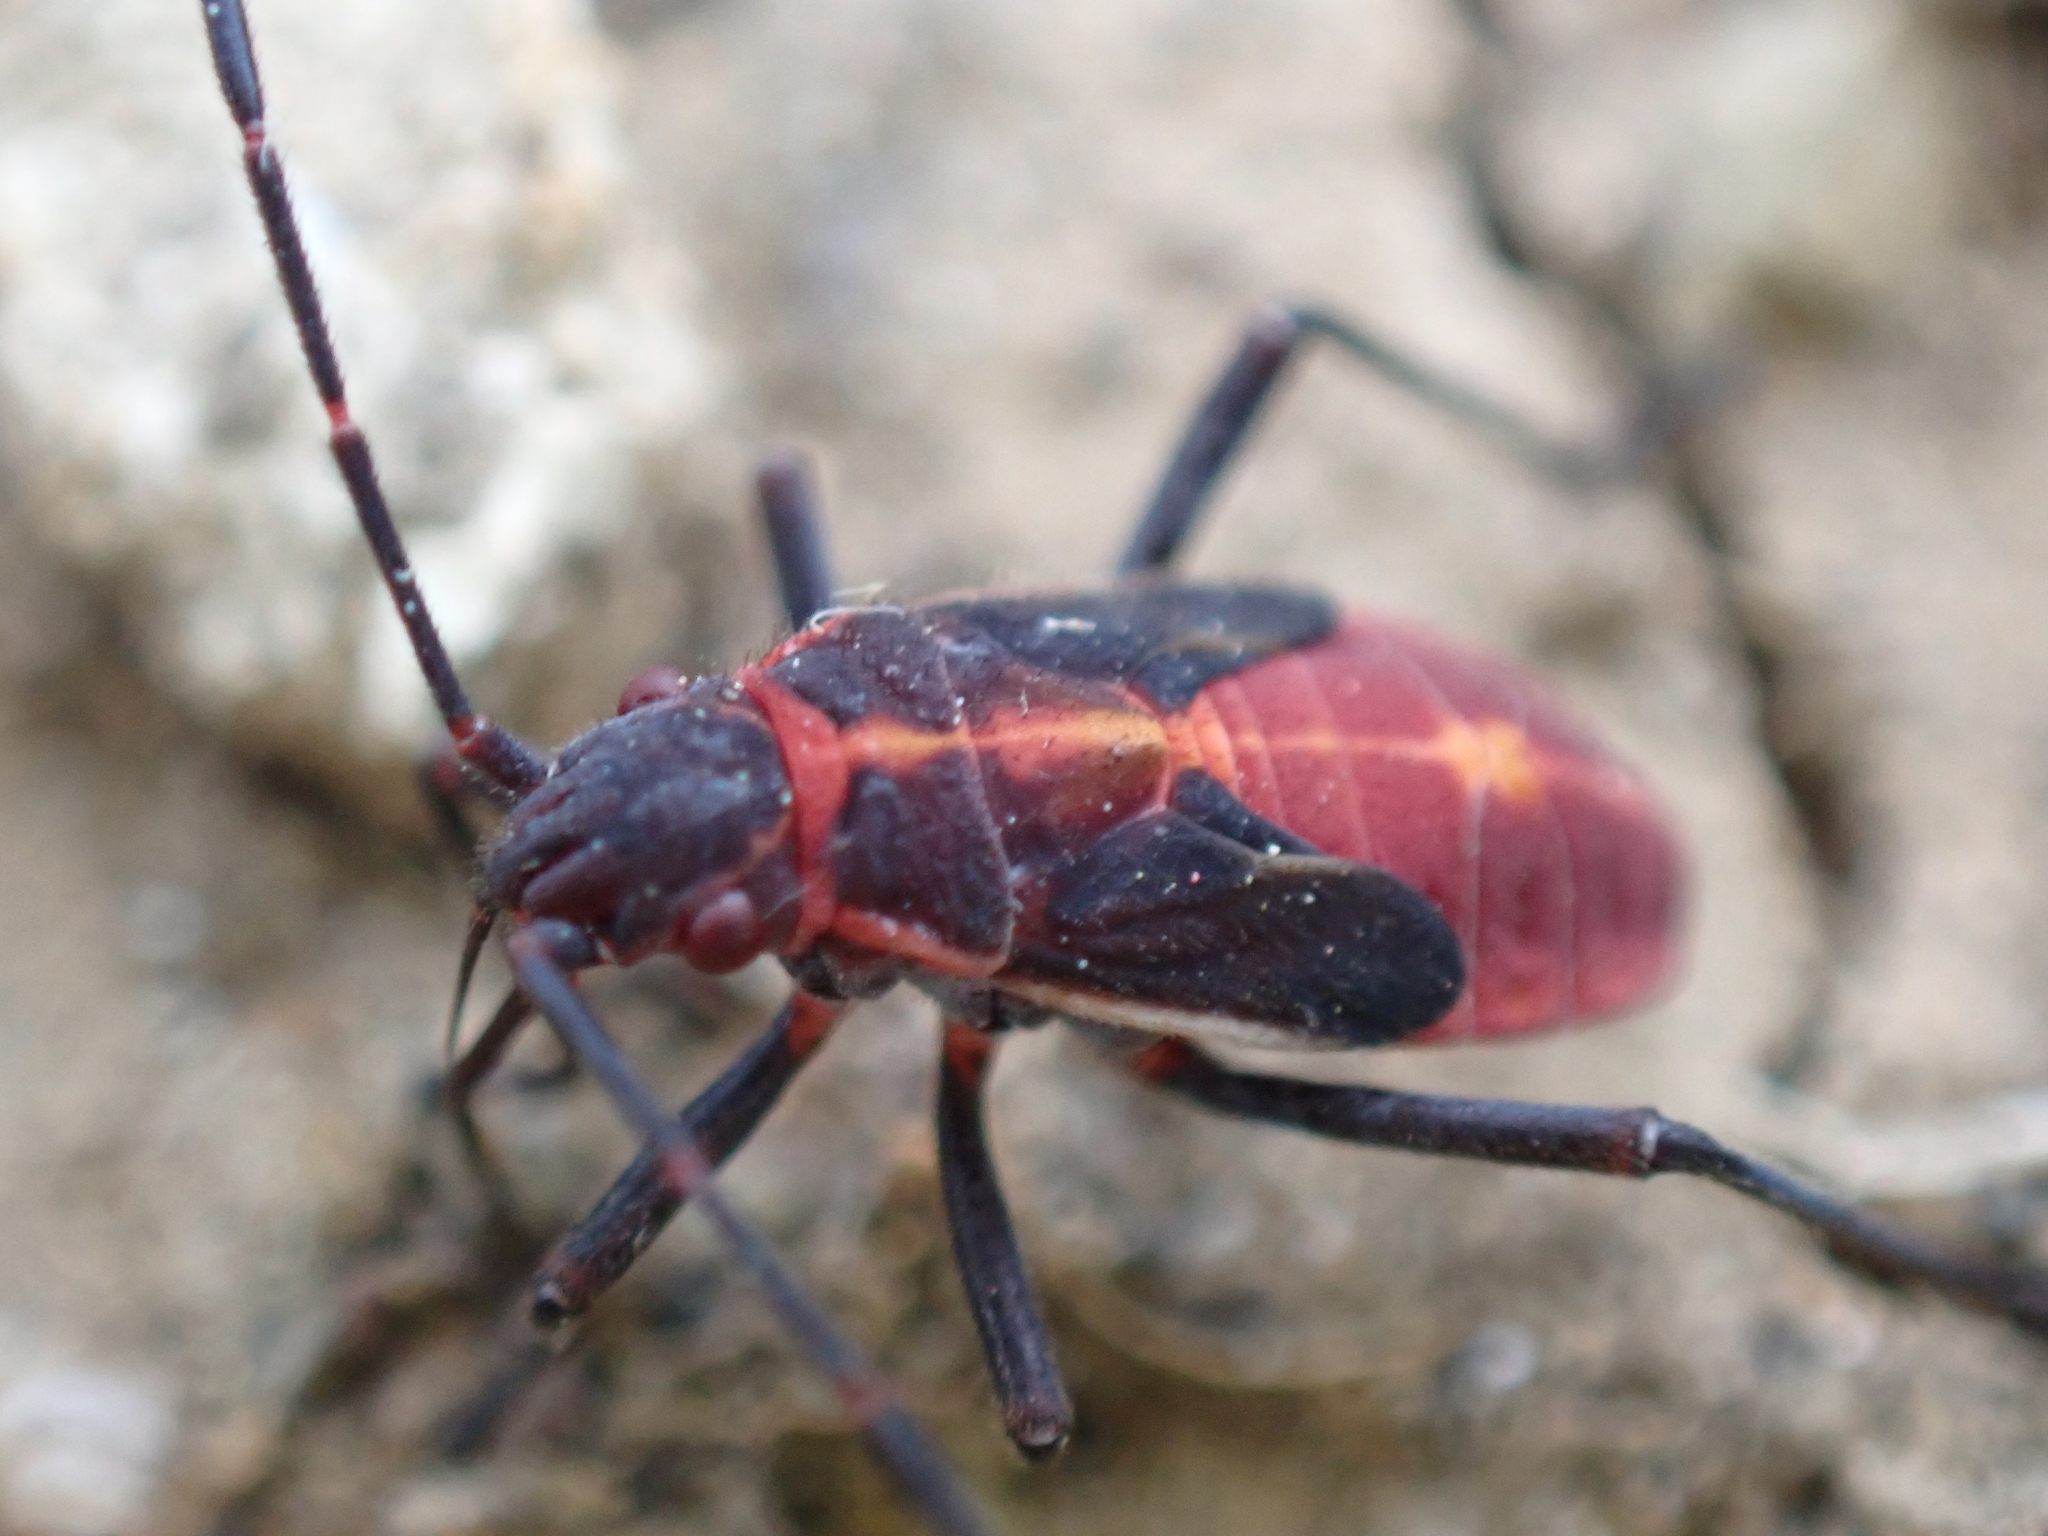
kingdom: Animalia
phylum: Arthropoda
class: Insecta
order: Hemiptera
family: Rhopalidae
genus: Boisea
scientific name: Boisea trivittata
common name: Boxelder bug
